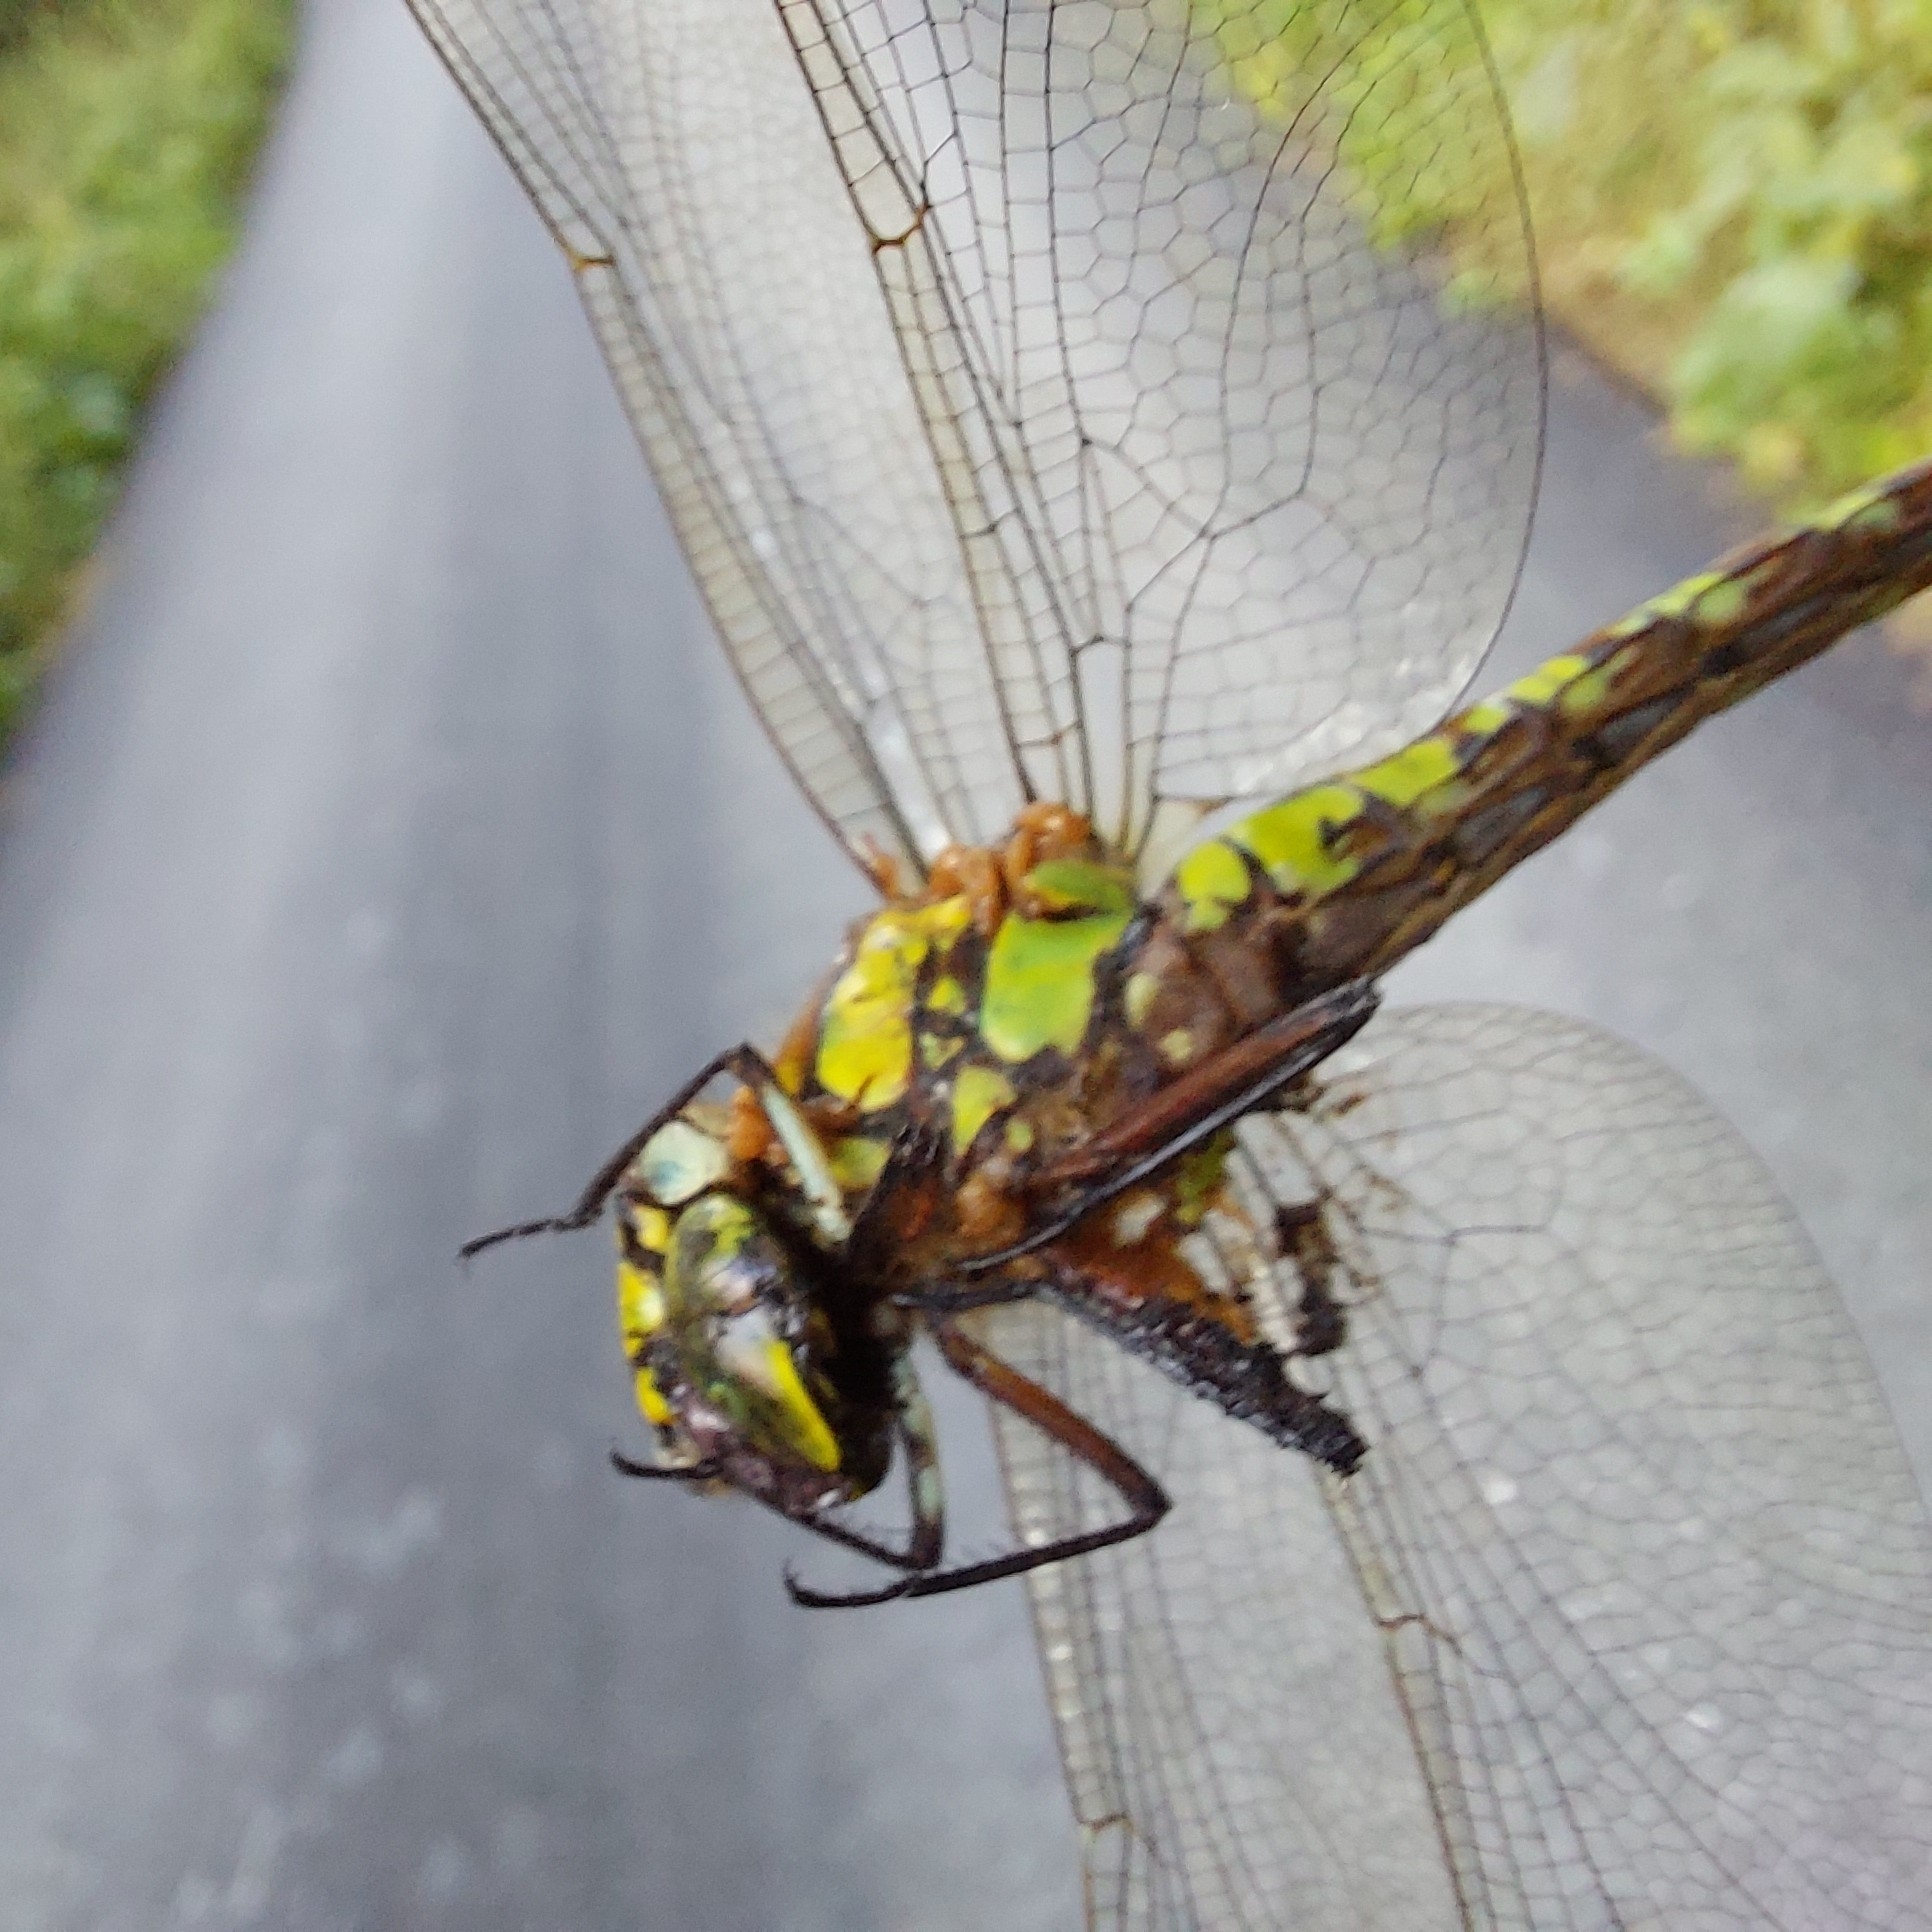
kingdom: Animalia
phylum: Arthropoda
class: Insecta
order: Odonata
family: Aeshnidae
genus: Aeshna
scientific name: Aeshna cyanea
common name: Southern hawker
